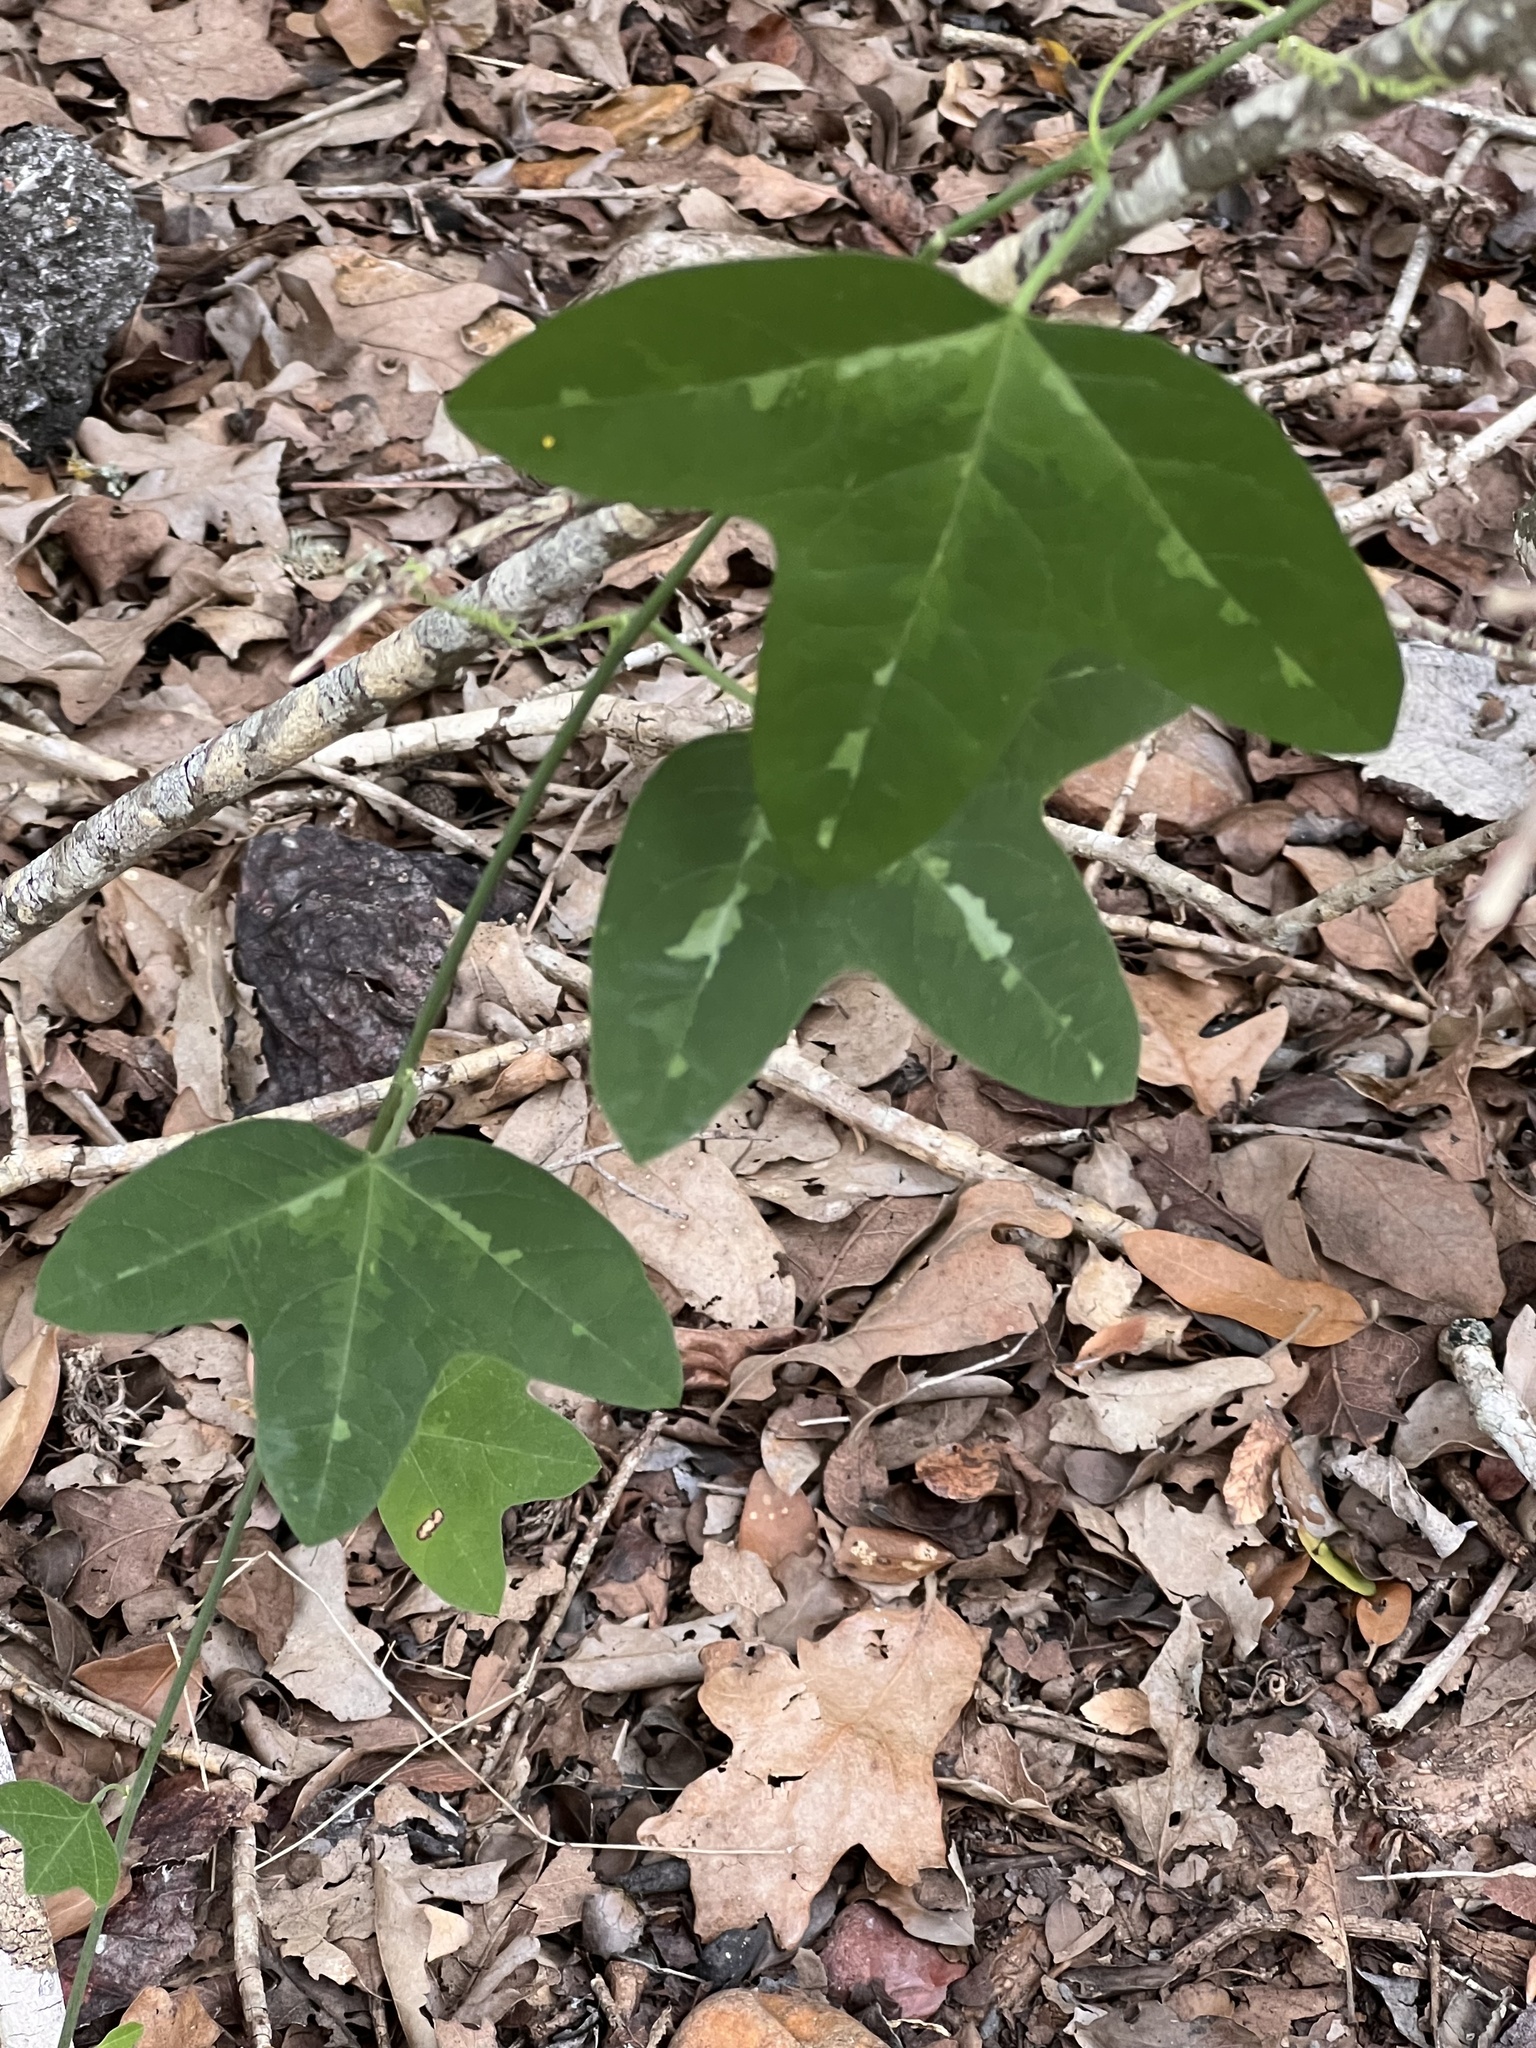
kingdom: Plantae
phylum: Tracheophyta
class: Magnoliopsida
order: Malpighiales
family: Passifloraceae
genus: Passiflora
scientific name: Passiflora lutea
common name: Yellow passionflower
